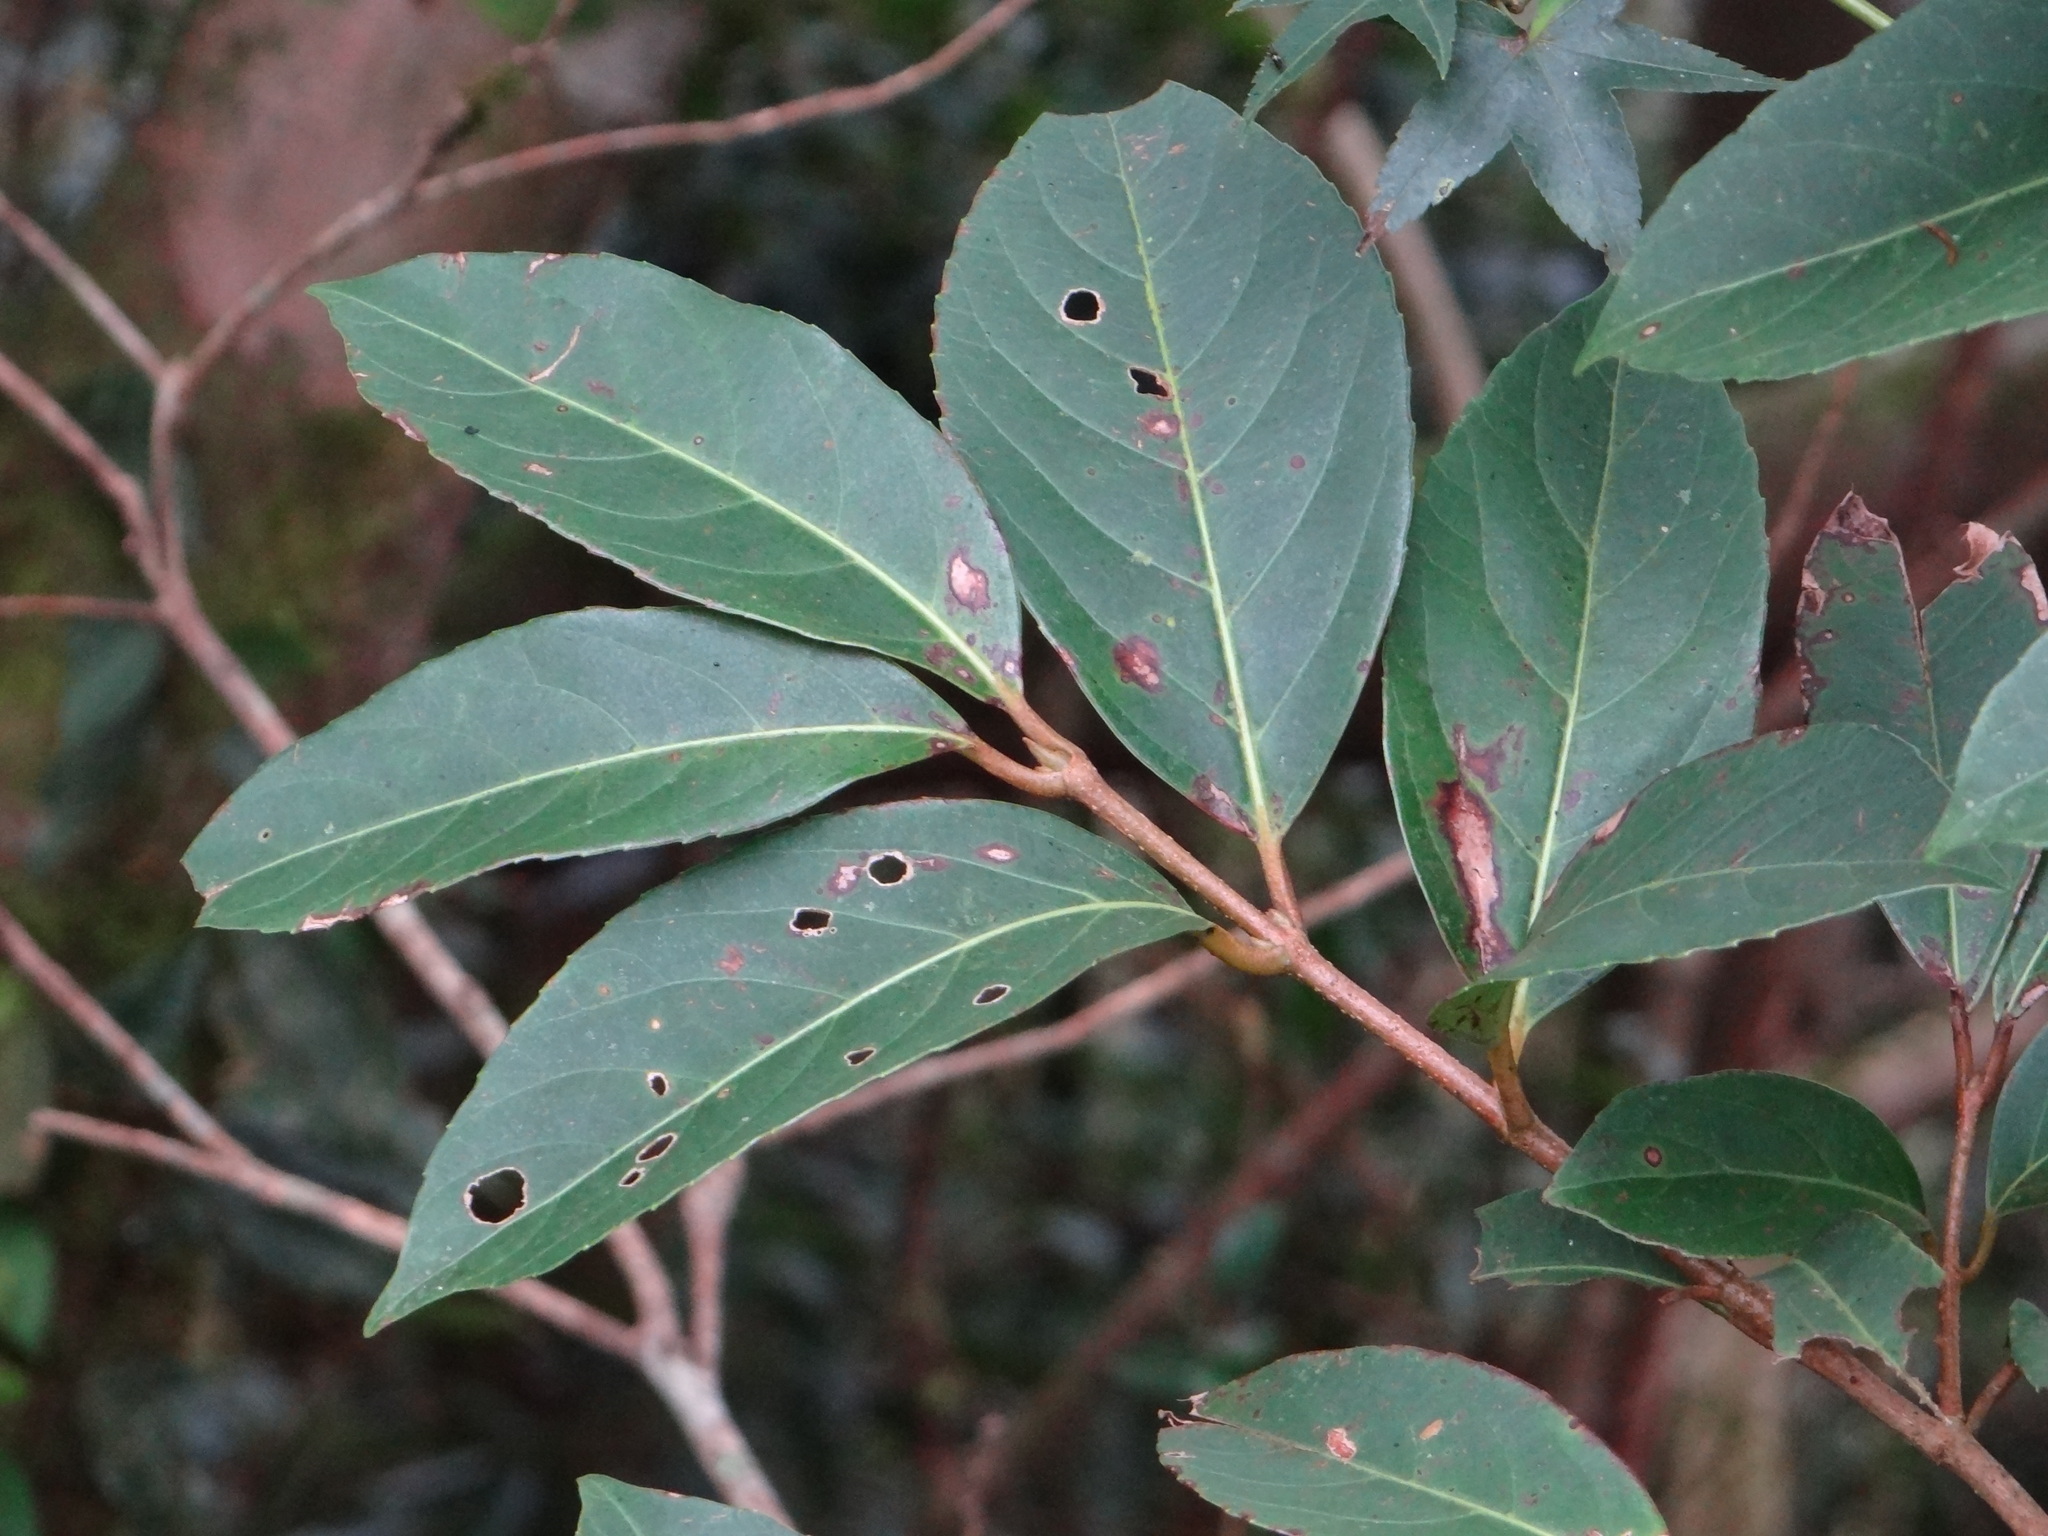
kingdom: Plantae
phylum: Tracheophyta
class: Magnoliopsida
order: Dipsacales
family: Viburnaceae
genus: Viburnum
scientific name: Viburnum odoratissimum
